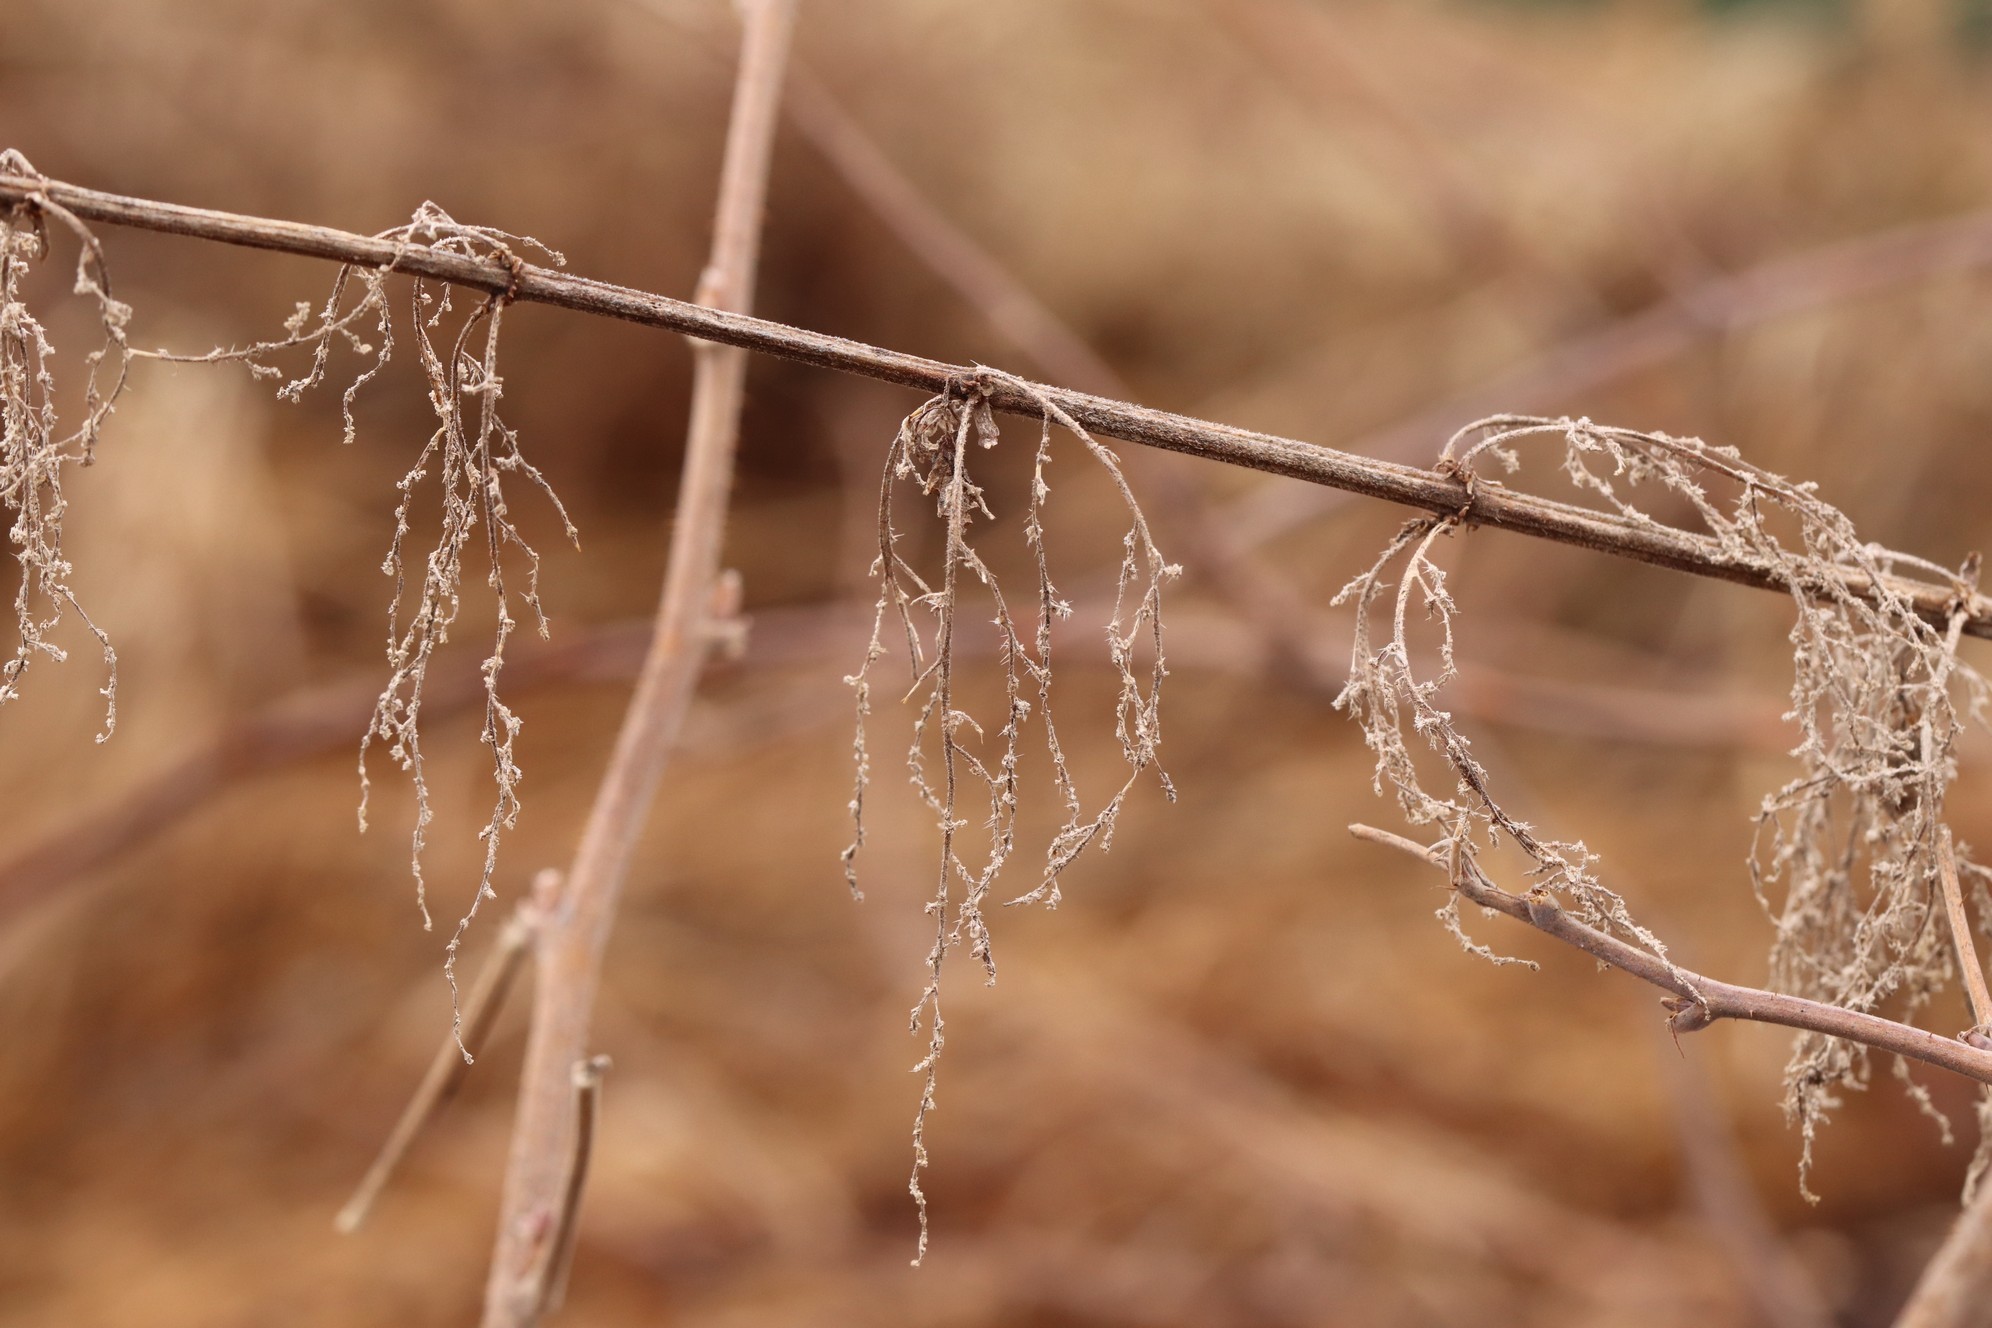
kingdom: Plantae
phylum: Tracheophyta
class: Magnoliopsida
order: Rosales
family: Urticaceae
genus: Urtica
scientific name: Urtica dioica
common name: Common nettle
